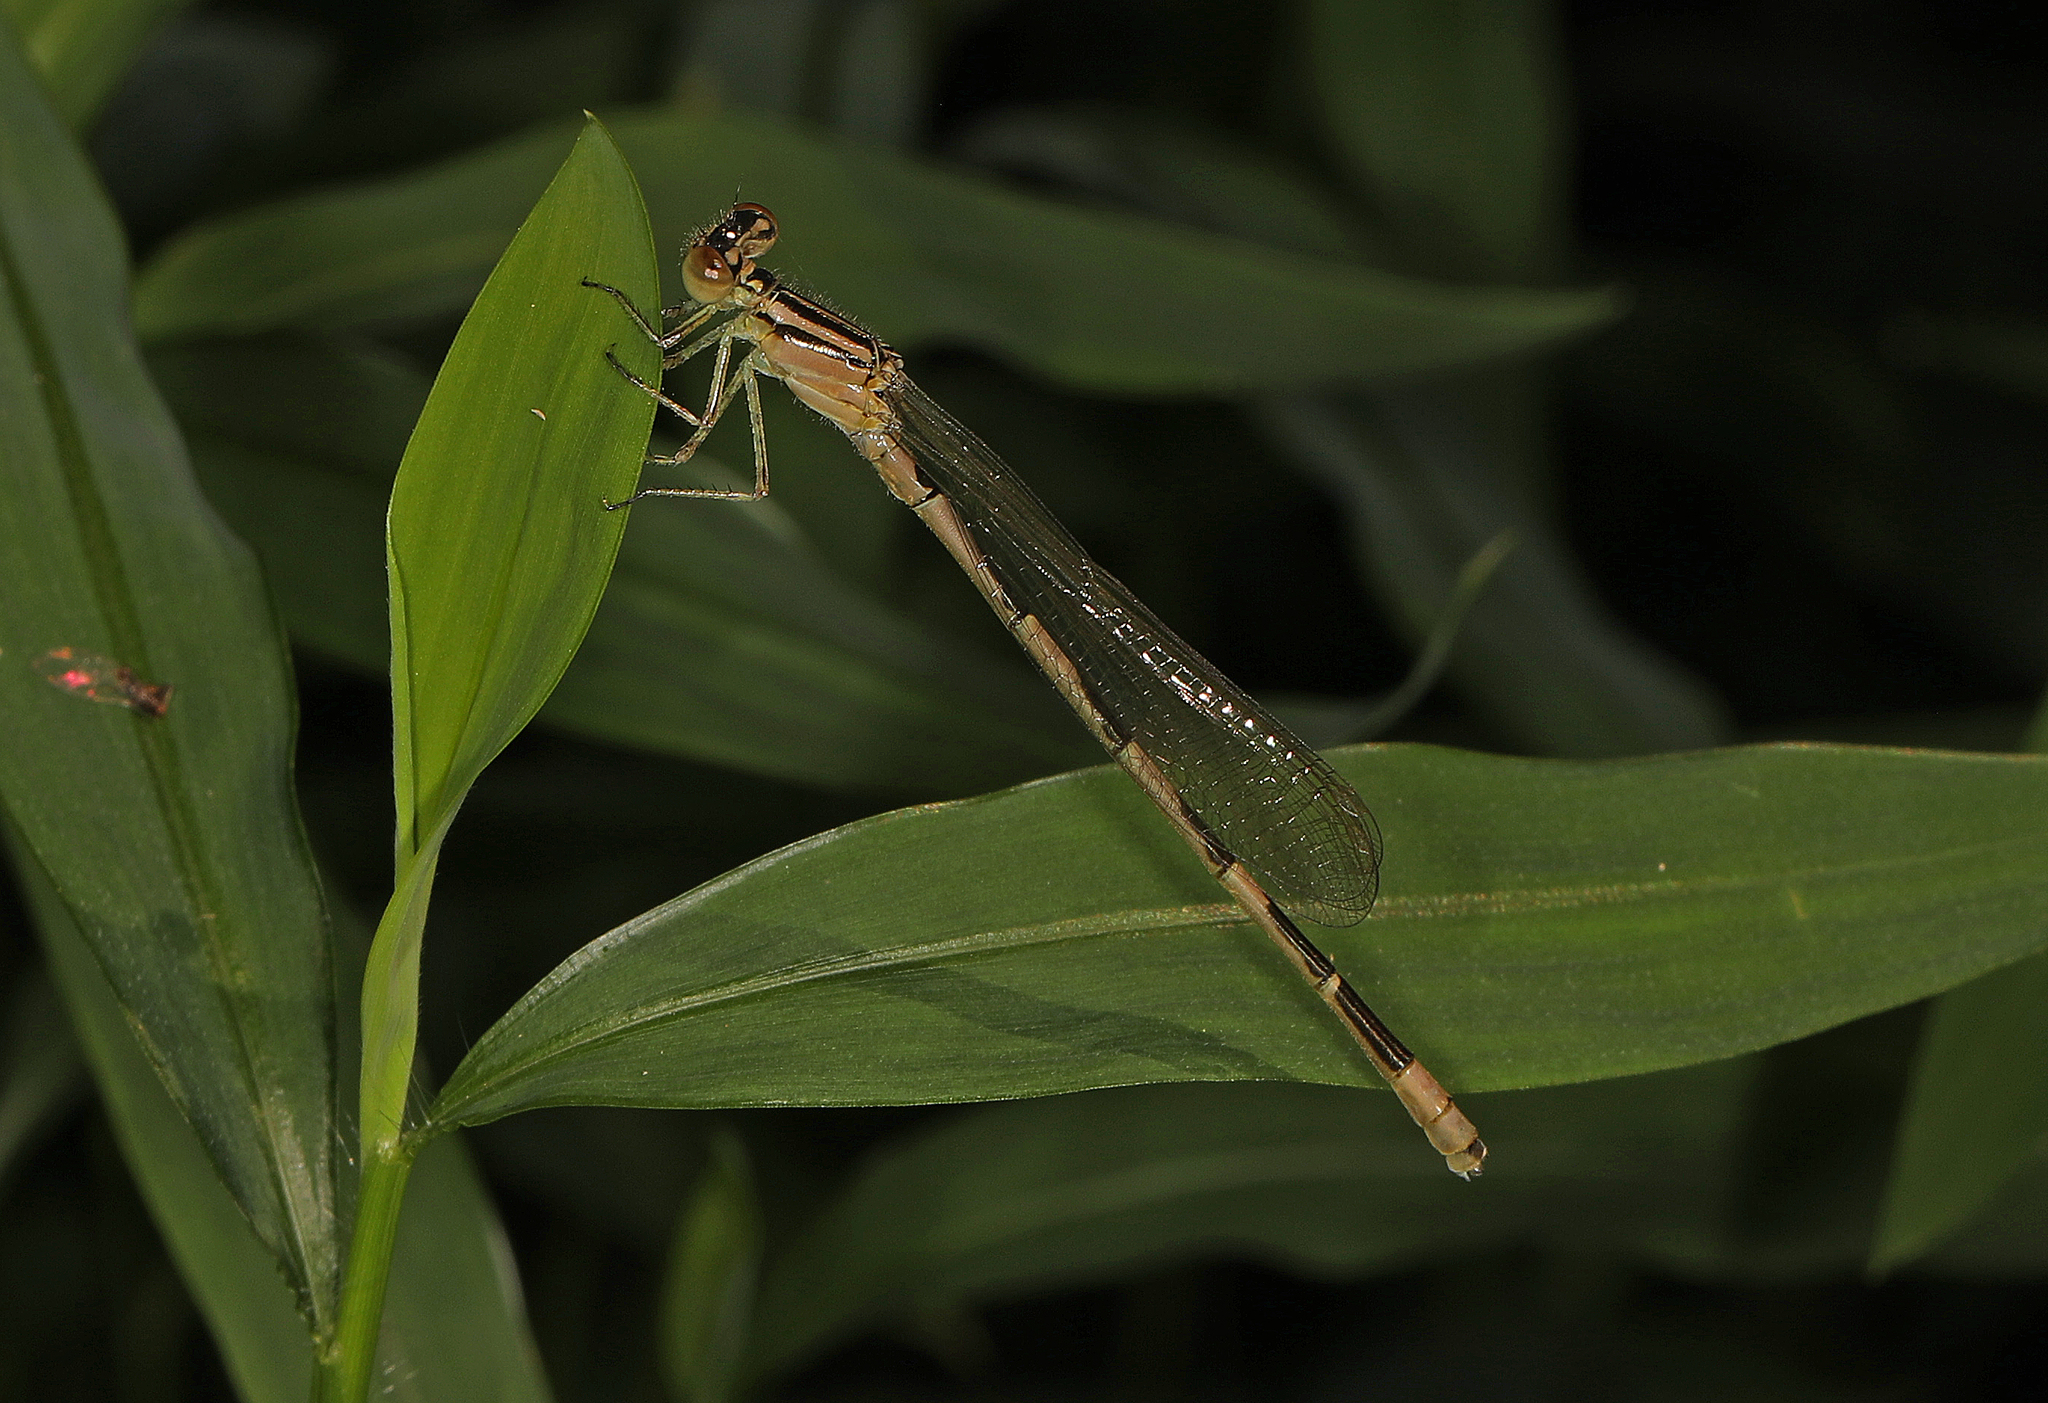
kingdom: Animalia
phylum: Arthropoda
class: Insecta
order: Odonata
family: Coenagrionidae
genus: Enallagma
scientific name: Enallagma durum
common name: Big bluet
